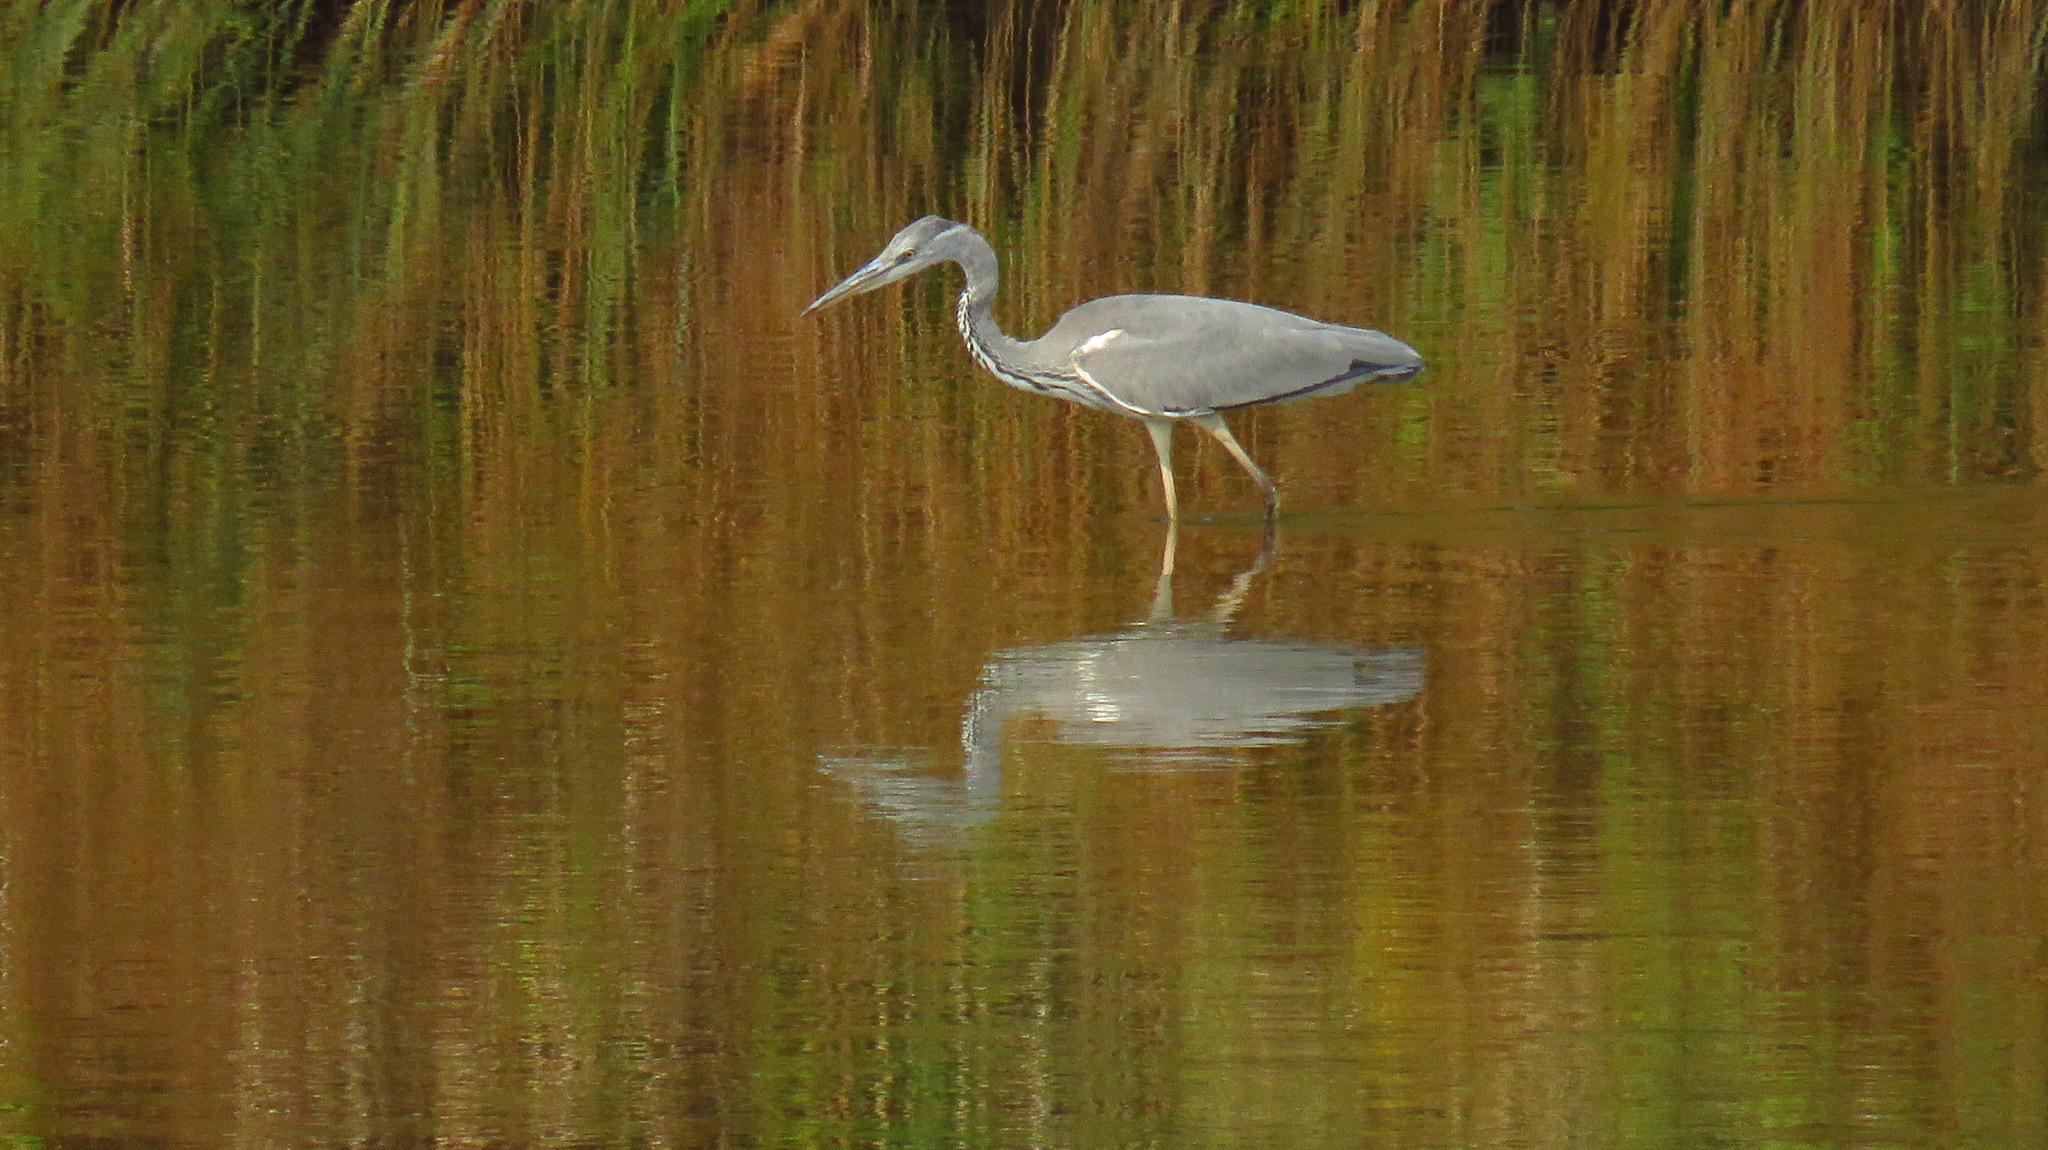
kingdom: Animalia
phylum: Chordata
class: Aves
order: Pelecaniformes
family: Ardeidae
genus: Ardea
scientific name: Ardea cinerea
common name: Grey heron
